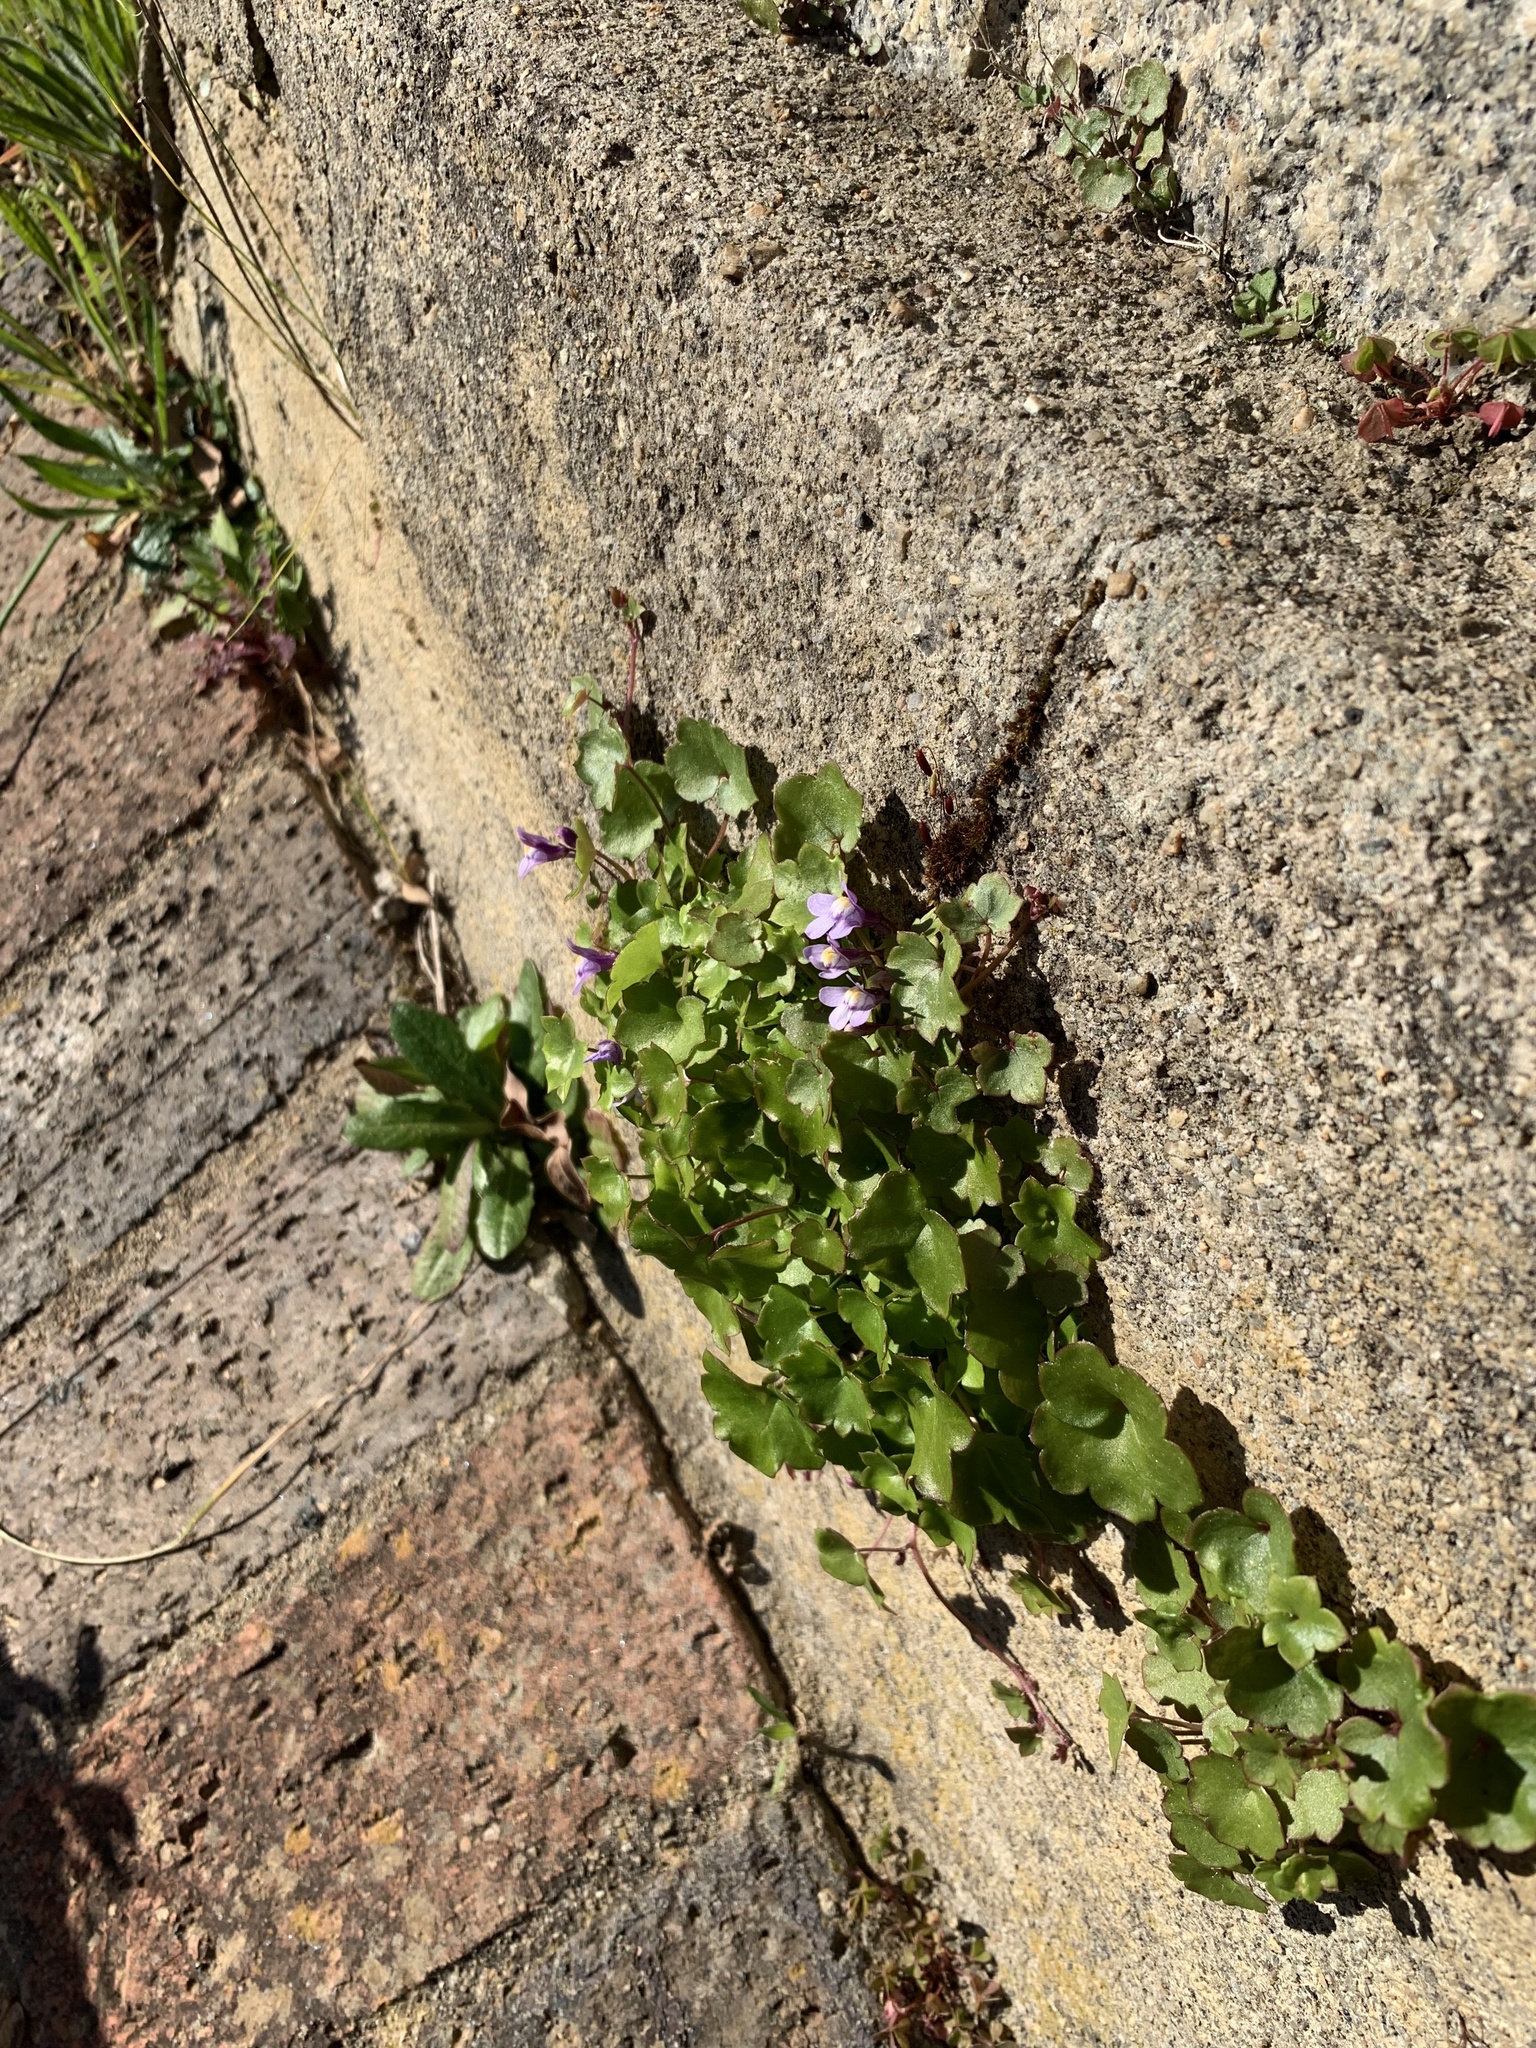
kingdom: Plantae
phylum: Tracheophyta
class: Magnoliopsida
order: Lamiales
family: Plantaginaceae
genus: Cymbalaria
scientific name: Cymbalaria muralis
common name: Ivy-leaved toadflax
